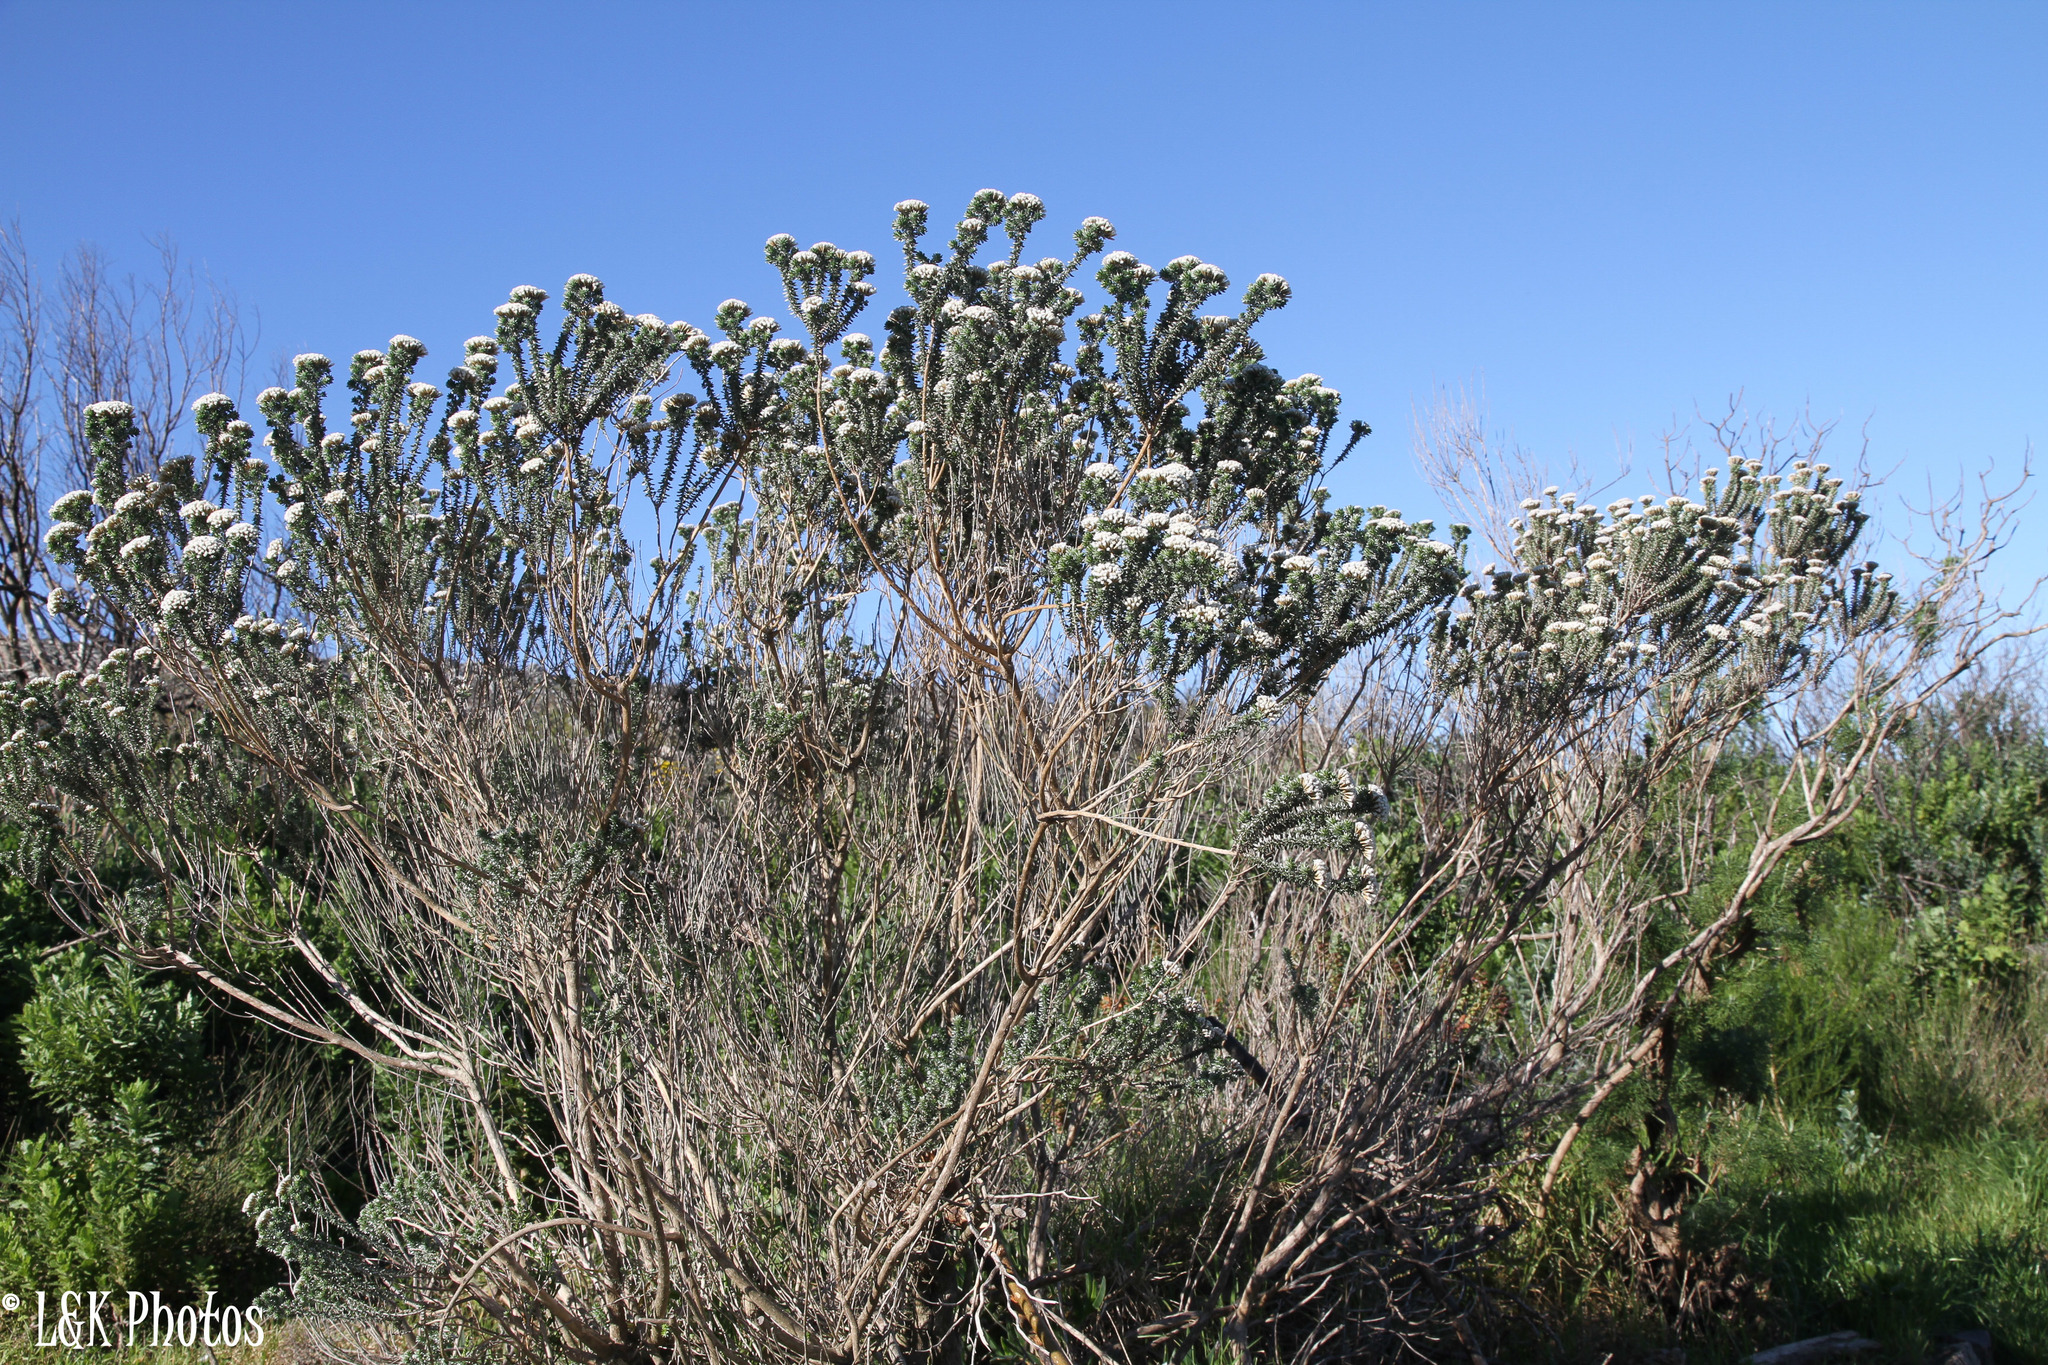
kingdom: Plantae
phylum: Tracheophyta
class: Magnoliopsida
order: Asterales
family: Asteraceae
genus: Metalasia
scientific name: Metalasia muricata
